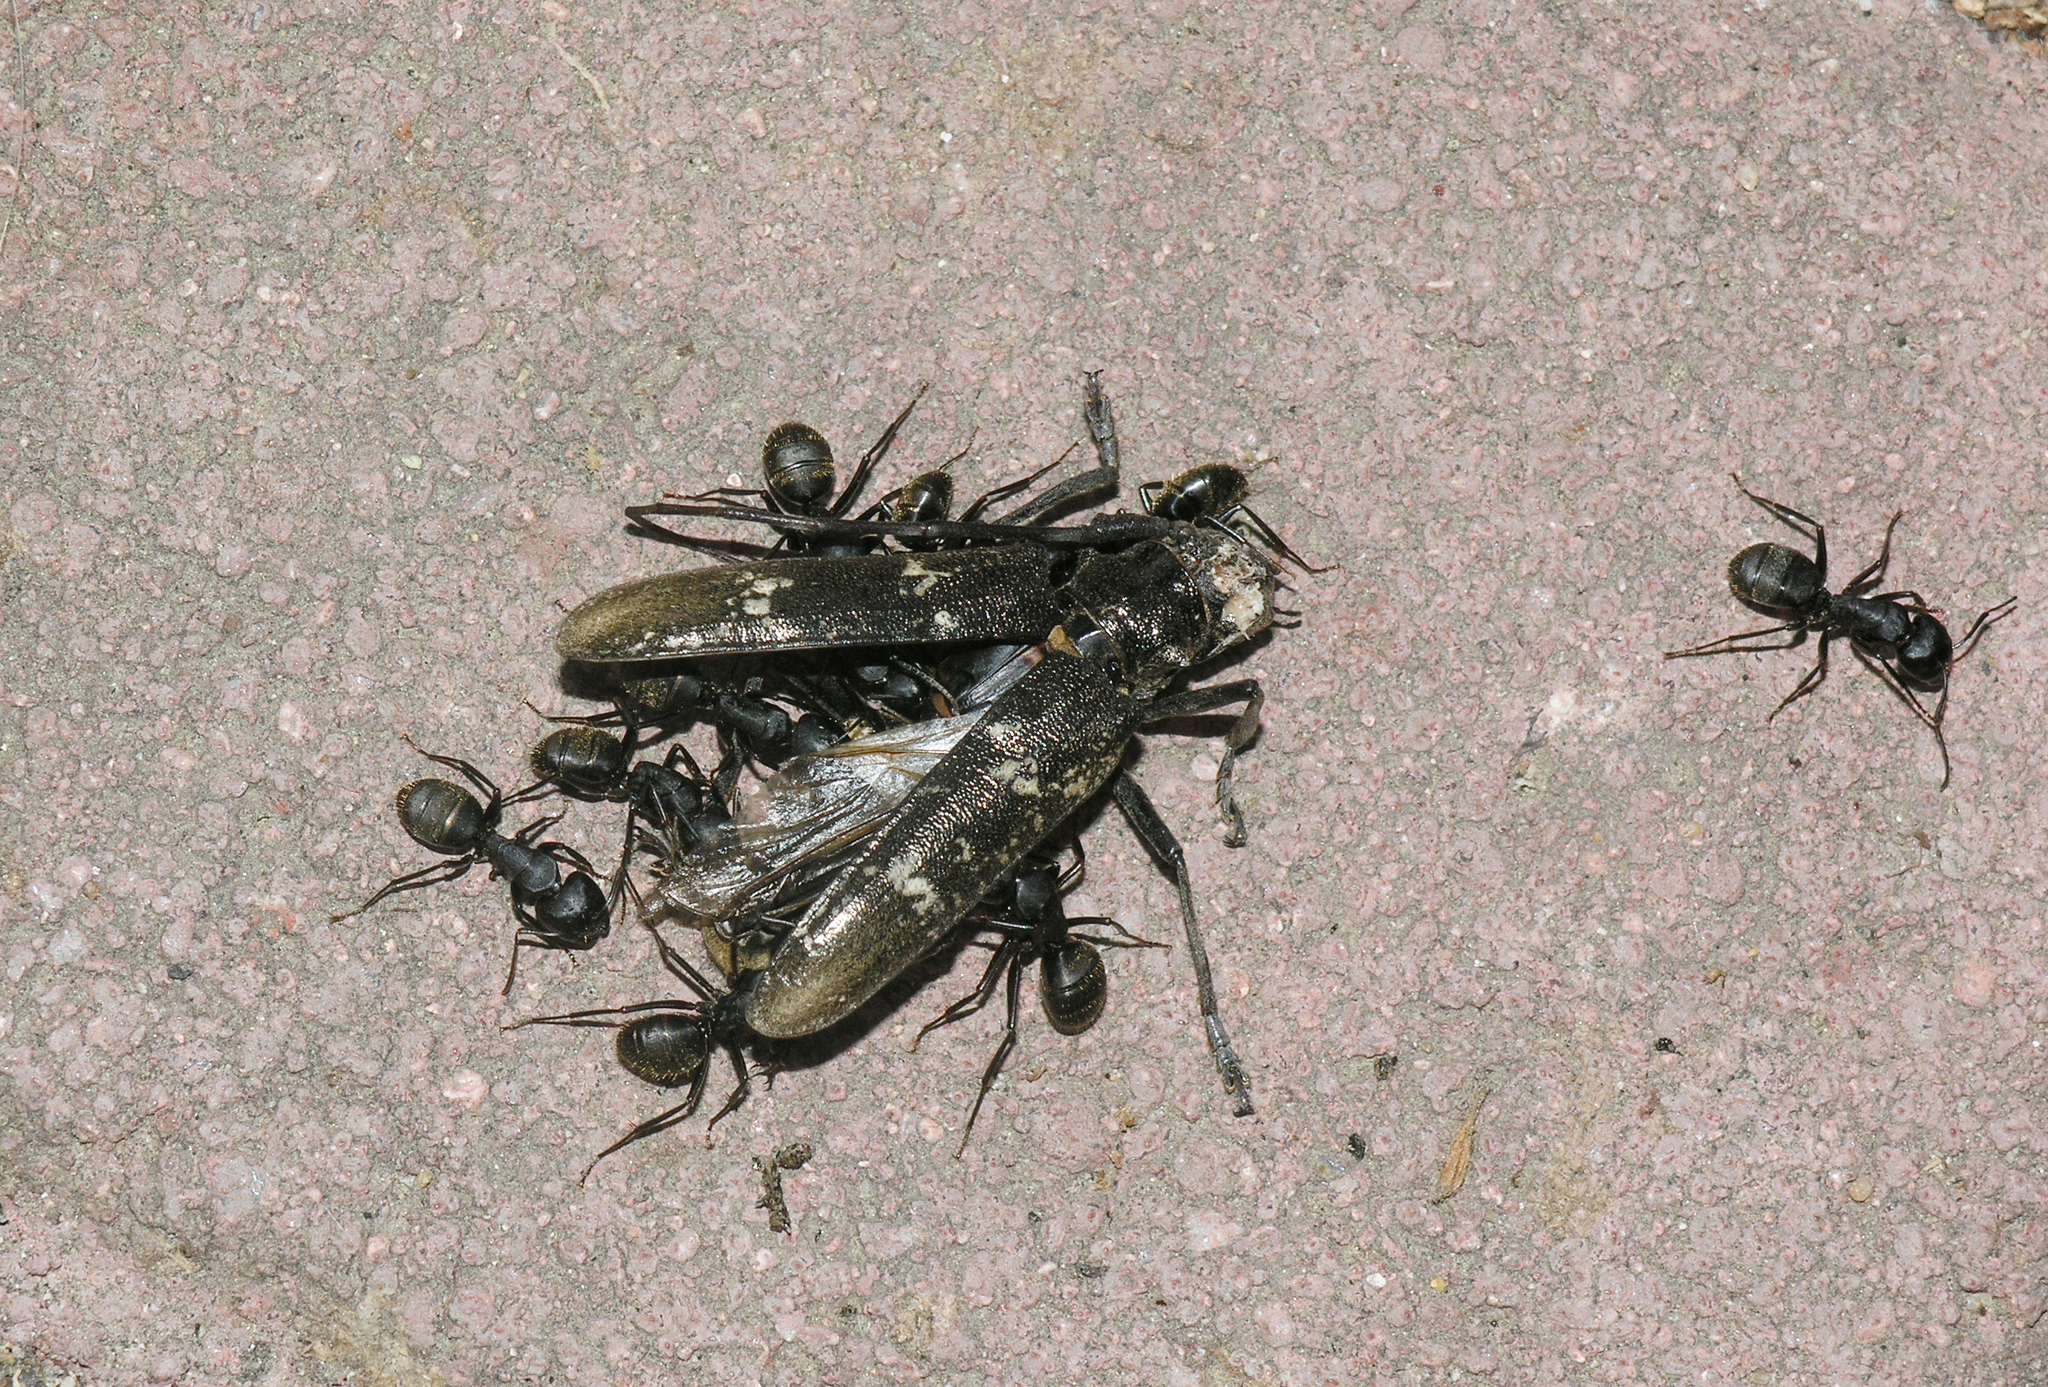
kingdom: Animalia
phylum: Arthropoda
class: Insecta
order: Hymenoptera
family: Formicidae
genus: Camponotus
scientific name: Camponotus japonicus
